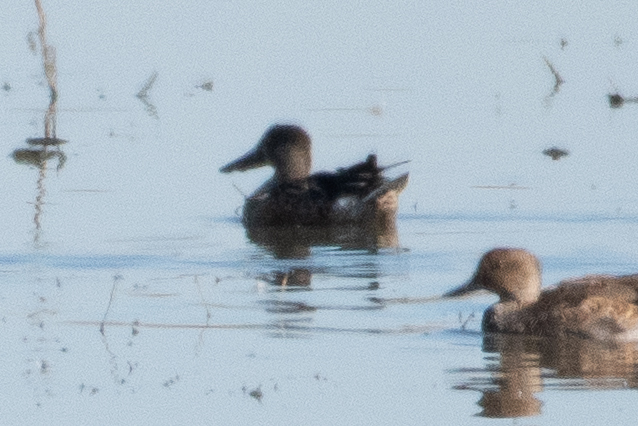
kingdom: Animalia
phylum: Chordata
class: Aves
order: Anseriformes
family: Anatidae
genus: Spatula
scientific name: Spatula clypeata
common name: Northern shoveler
